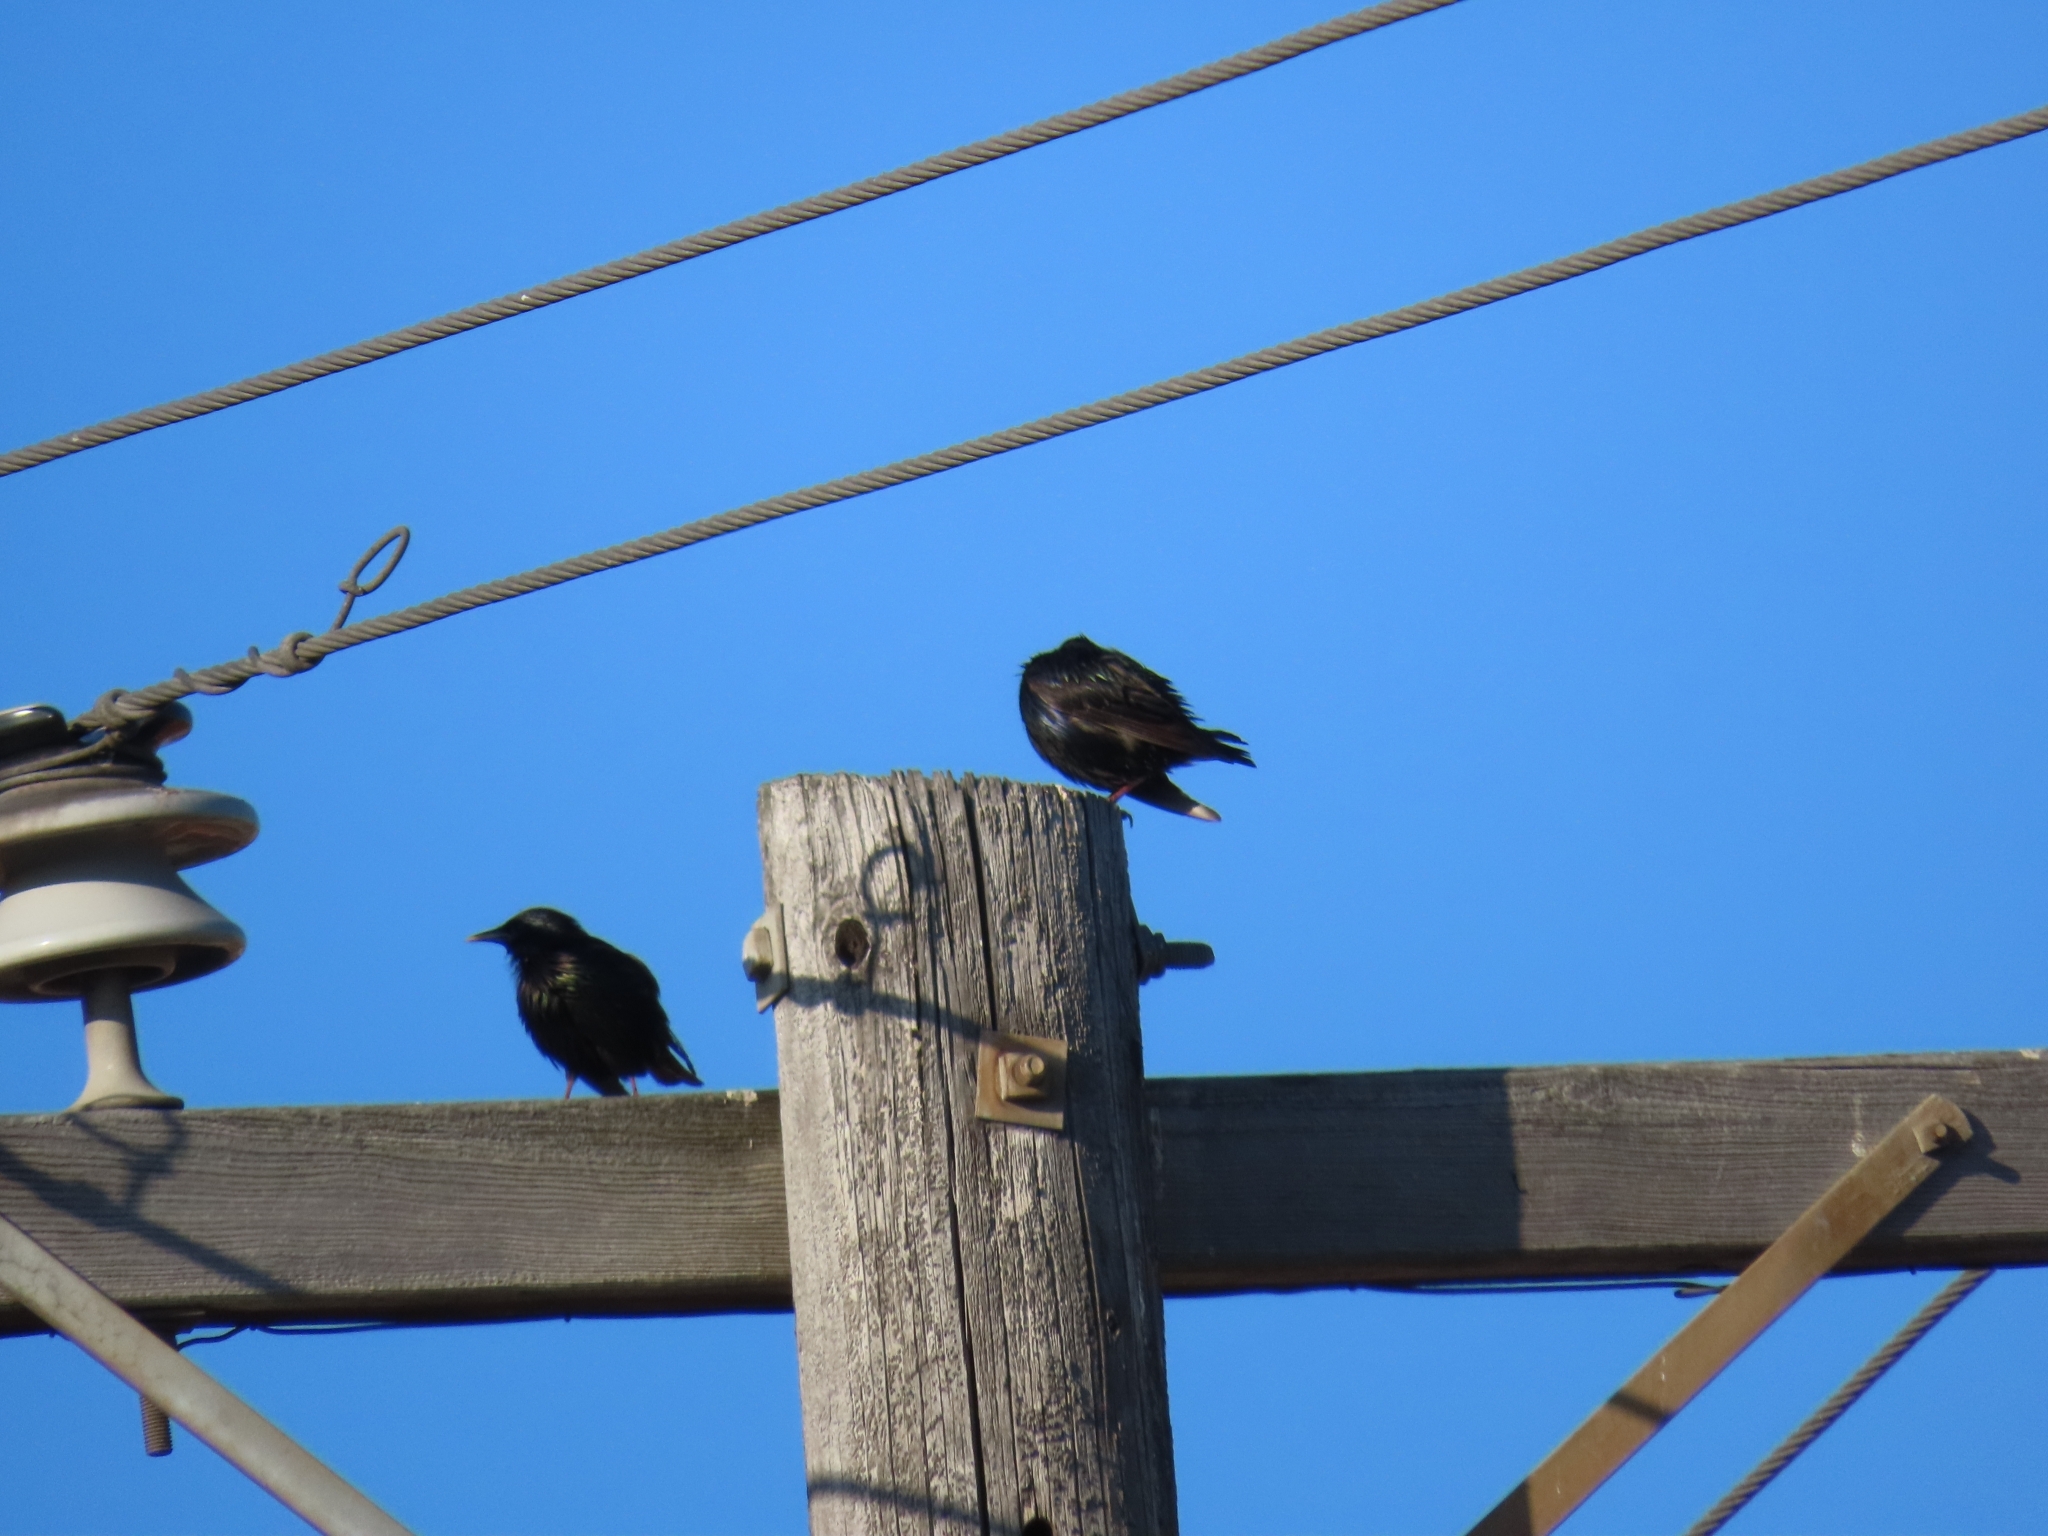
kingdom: Animalia
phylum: Chordata
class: Aves
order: Passeriformes
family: Sturnidae
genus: Sturnus
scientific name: Sturnus vulgaris
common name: Common starling
